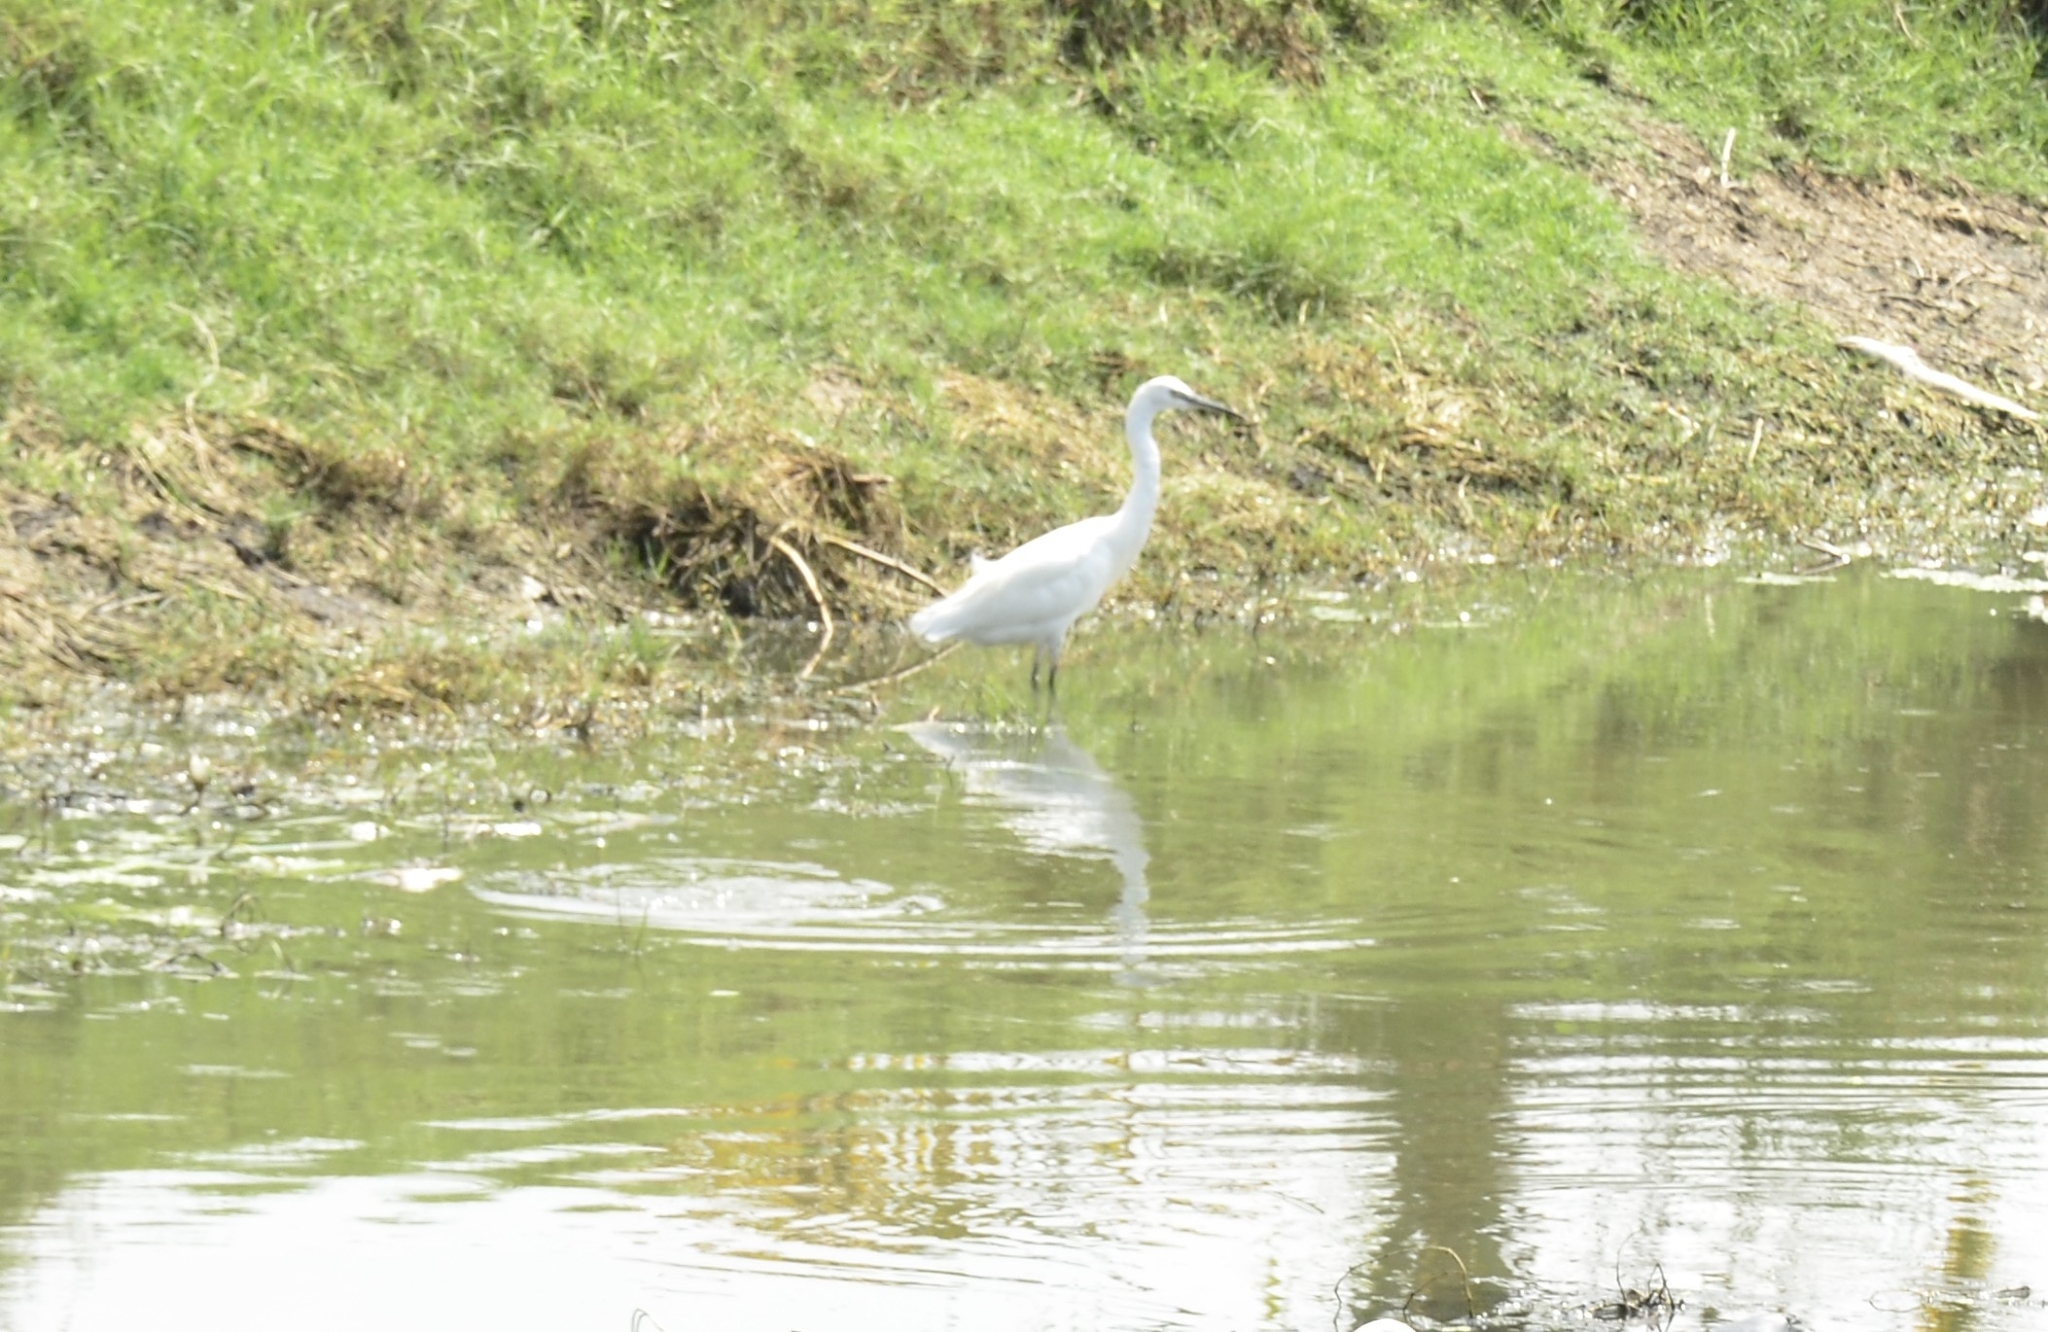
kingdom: Animalia
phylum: Chordata
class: Aves
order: Pelecaniformes
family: Ardeidae
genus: Egretta
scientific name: Egretta garzetta
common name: Little egret
